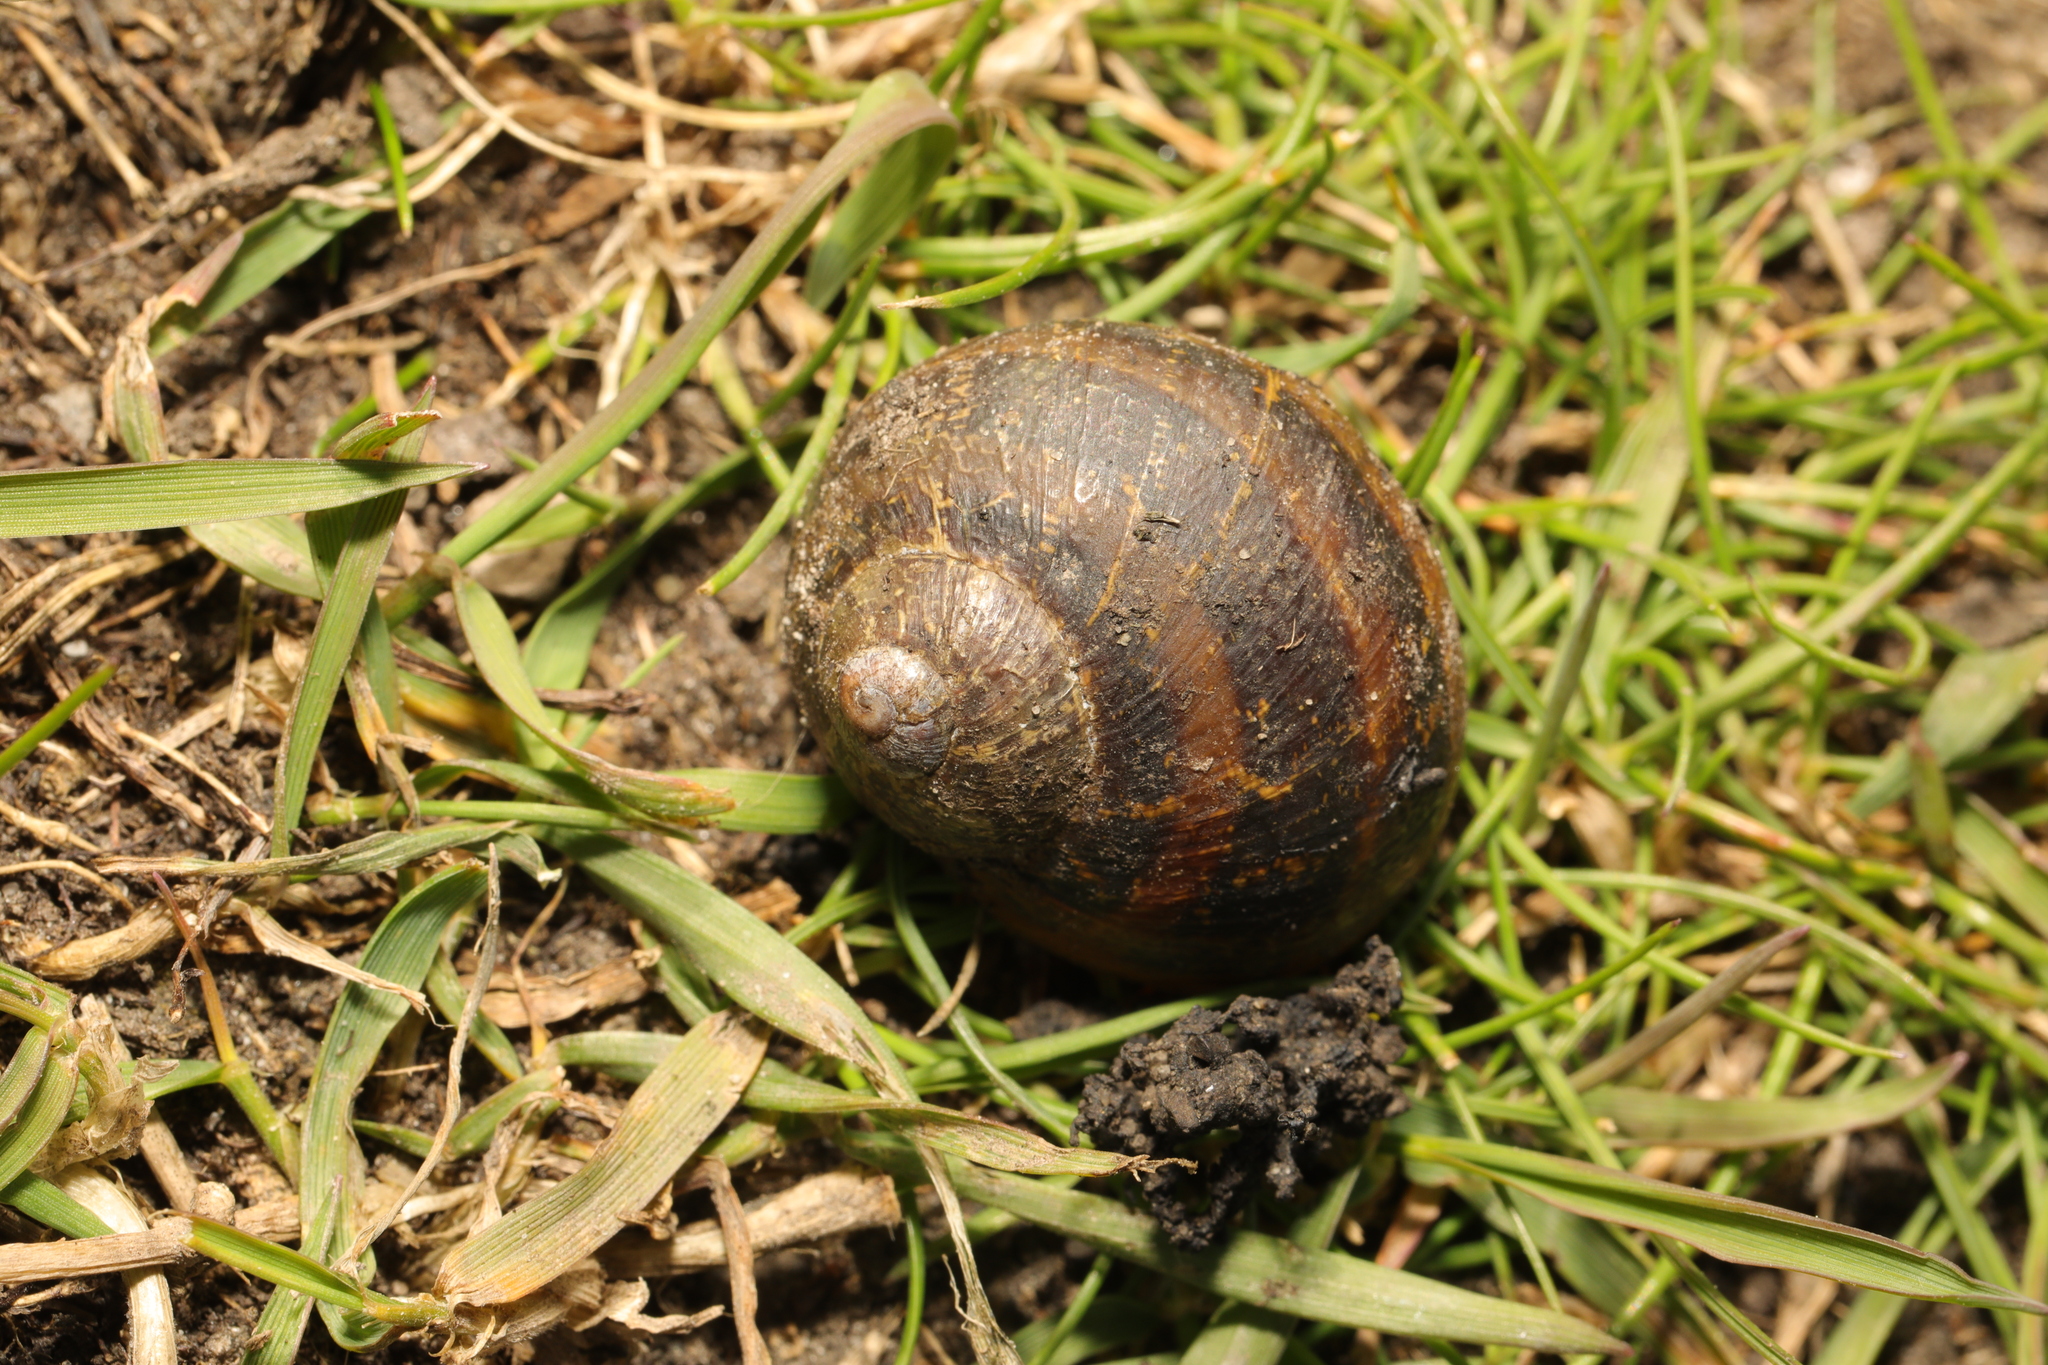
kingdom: Animalia
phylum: Mollusca
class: Gastropoda
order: Stylommatophora
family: Helicidae
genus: Cornu
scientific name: Cornu aspersum
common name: Brown garden snail
